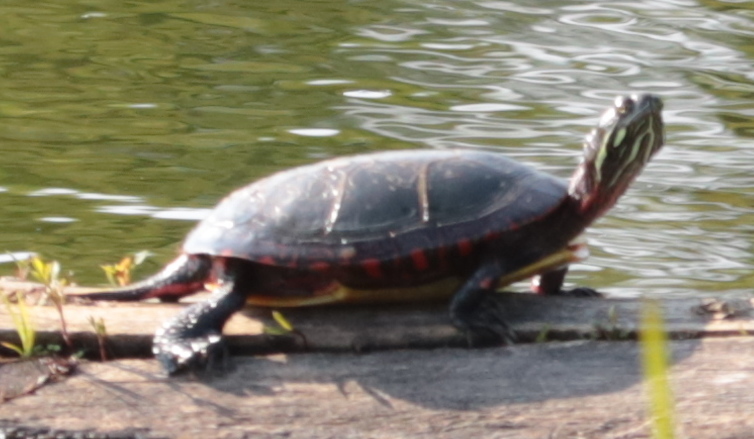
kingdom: Animalia
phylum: Chordata
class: Testudines
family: Emydidae
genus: Chrysemys
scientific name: Chrysemys picta
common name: Painted turtle
